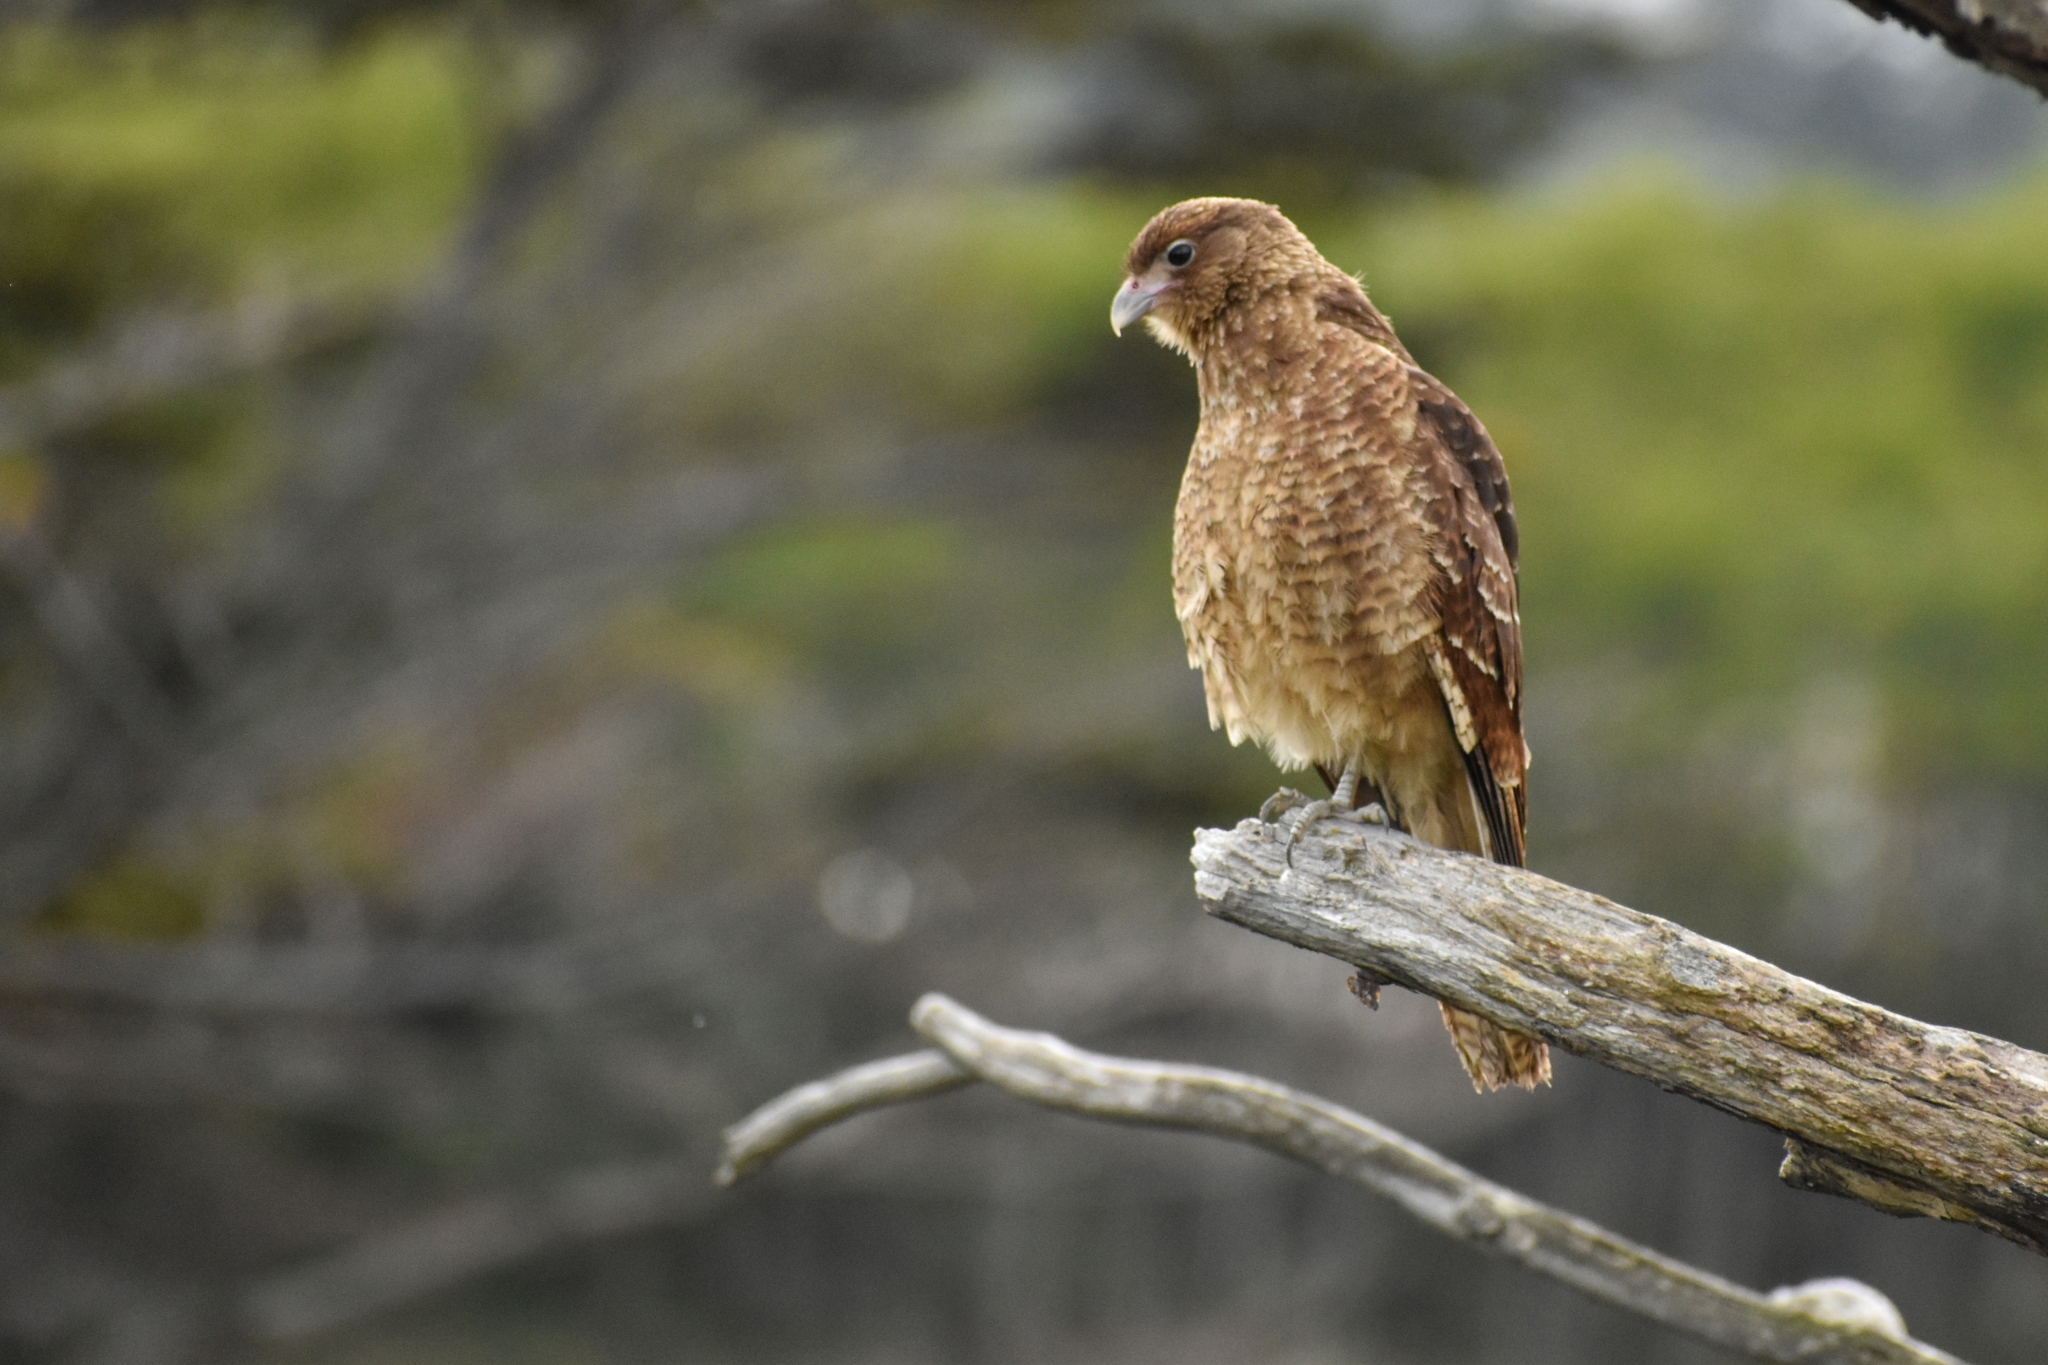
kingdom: Animalia
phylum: Chordata
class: Aves
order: Falconiformes
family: Falconidae
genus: Daptrius
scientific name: Daptrius
